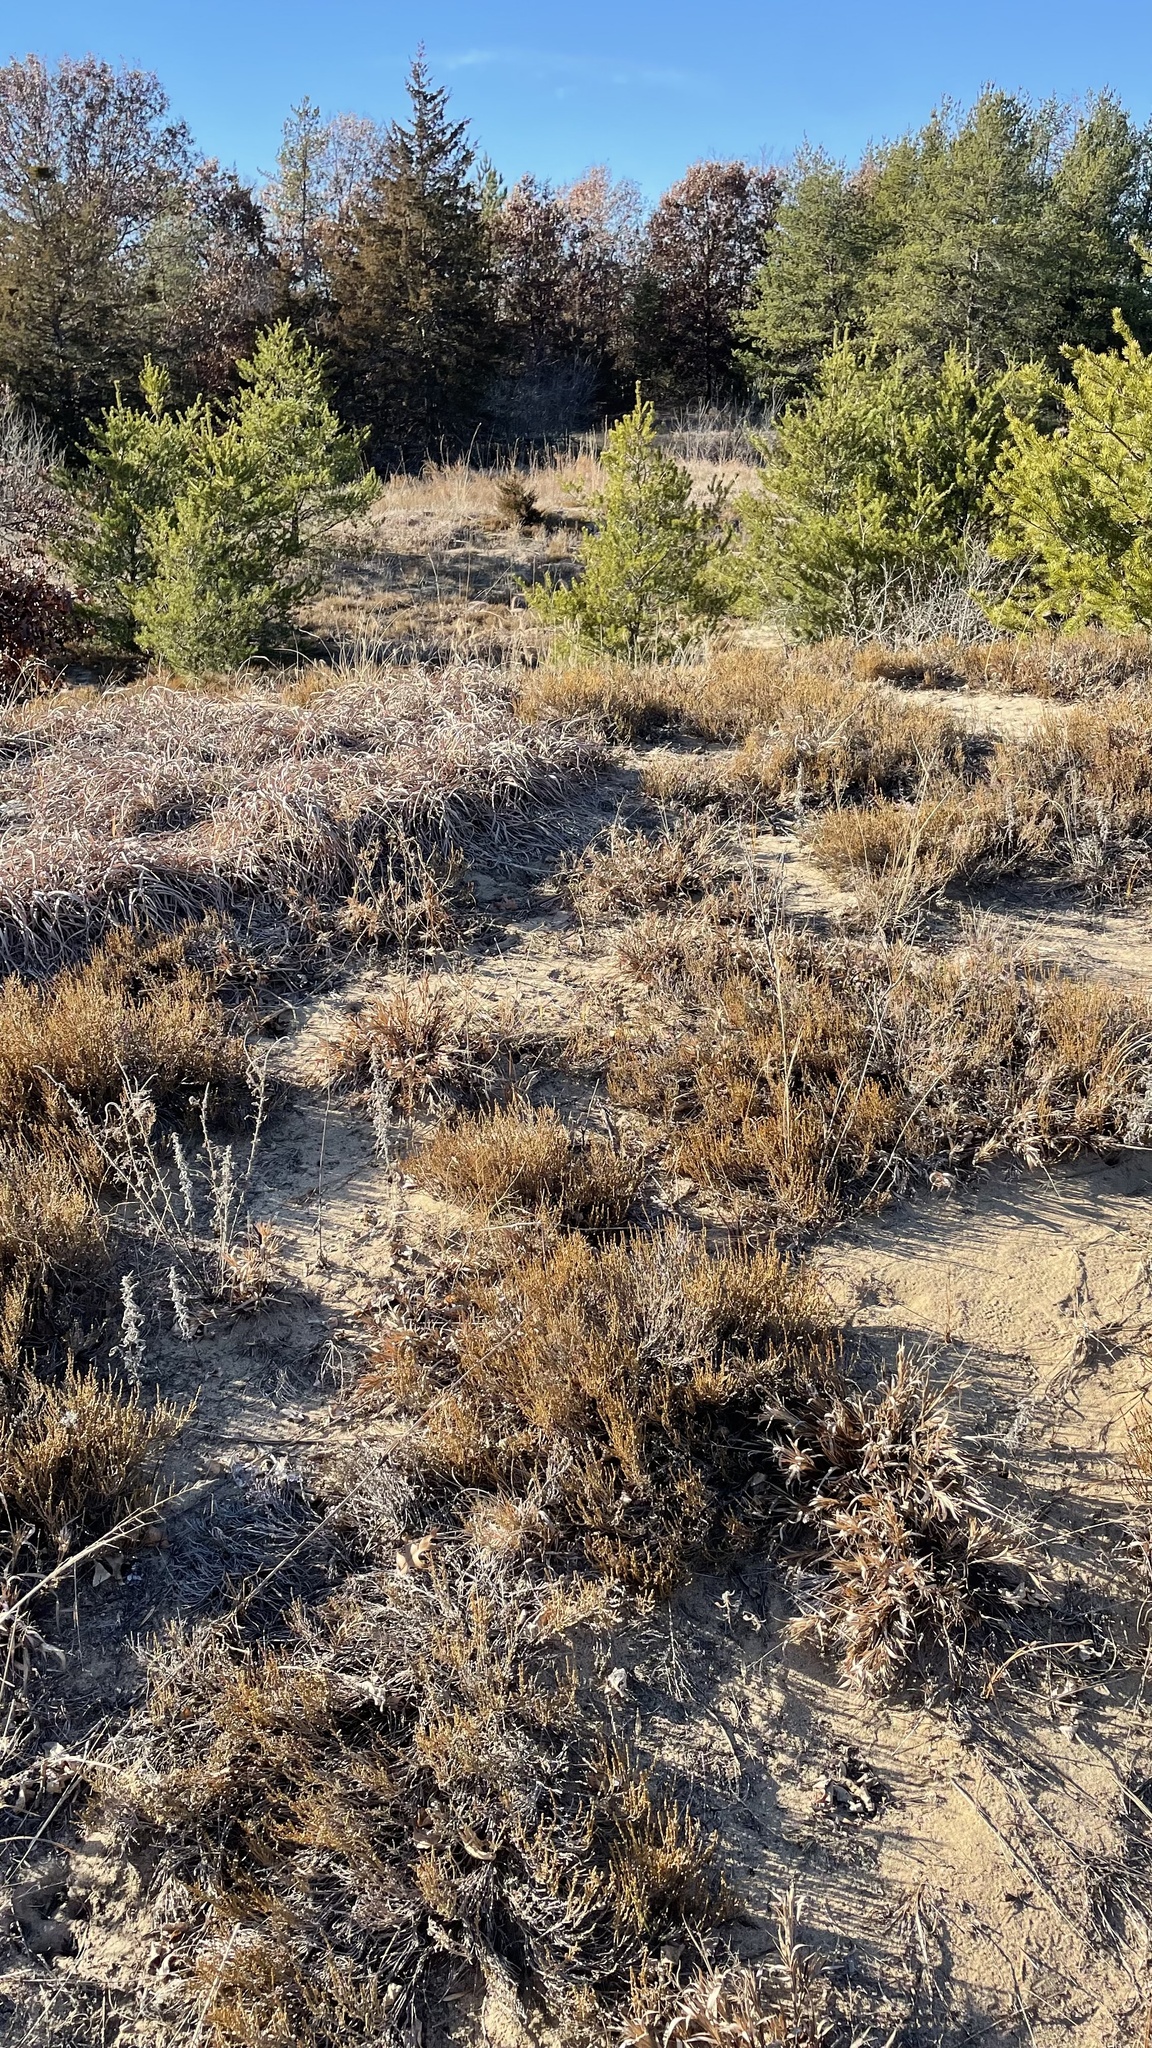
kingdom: Plantae
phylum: Tracheophyta
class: Magnoliopsida
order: Malvales
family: Cistaceae
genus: Hudsonia
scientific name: Hudsonia tomentosa
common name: Beach-heath
